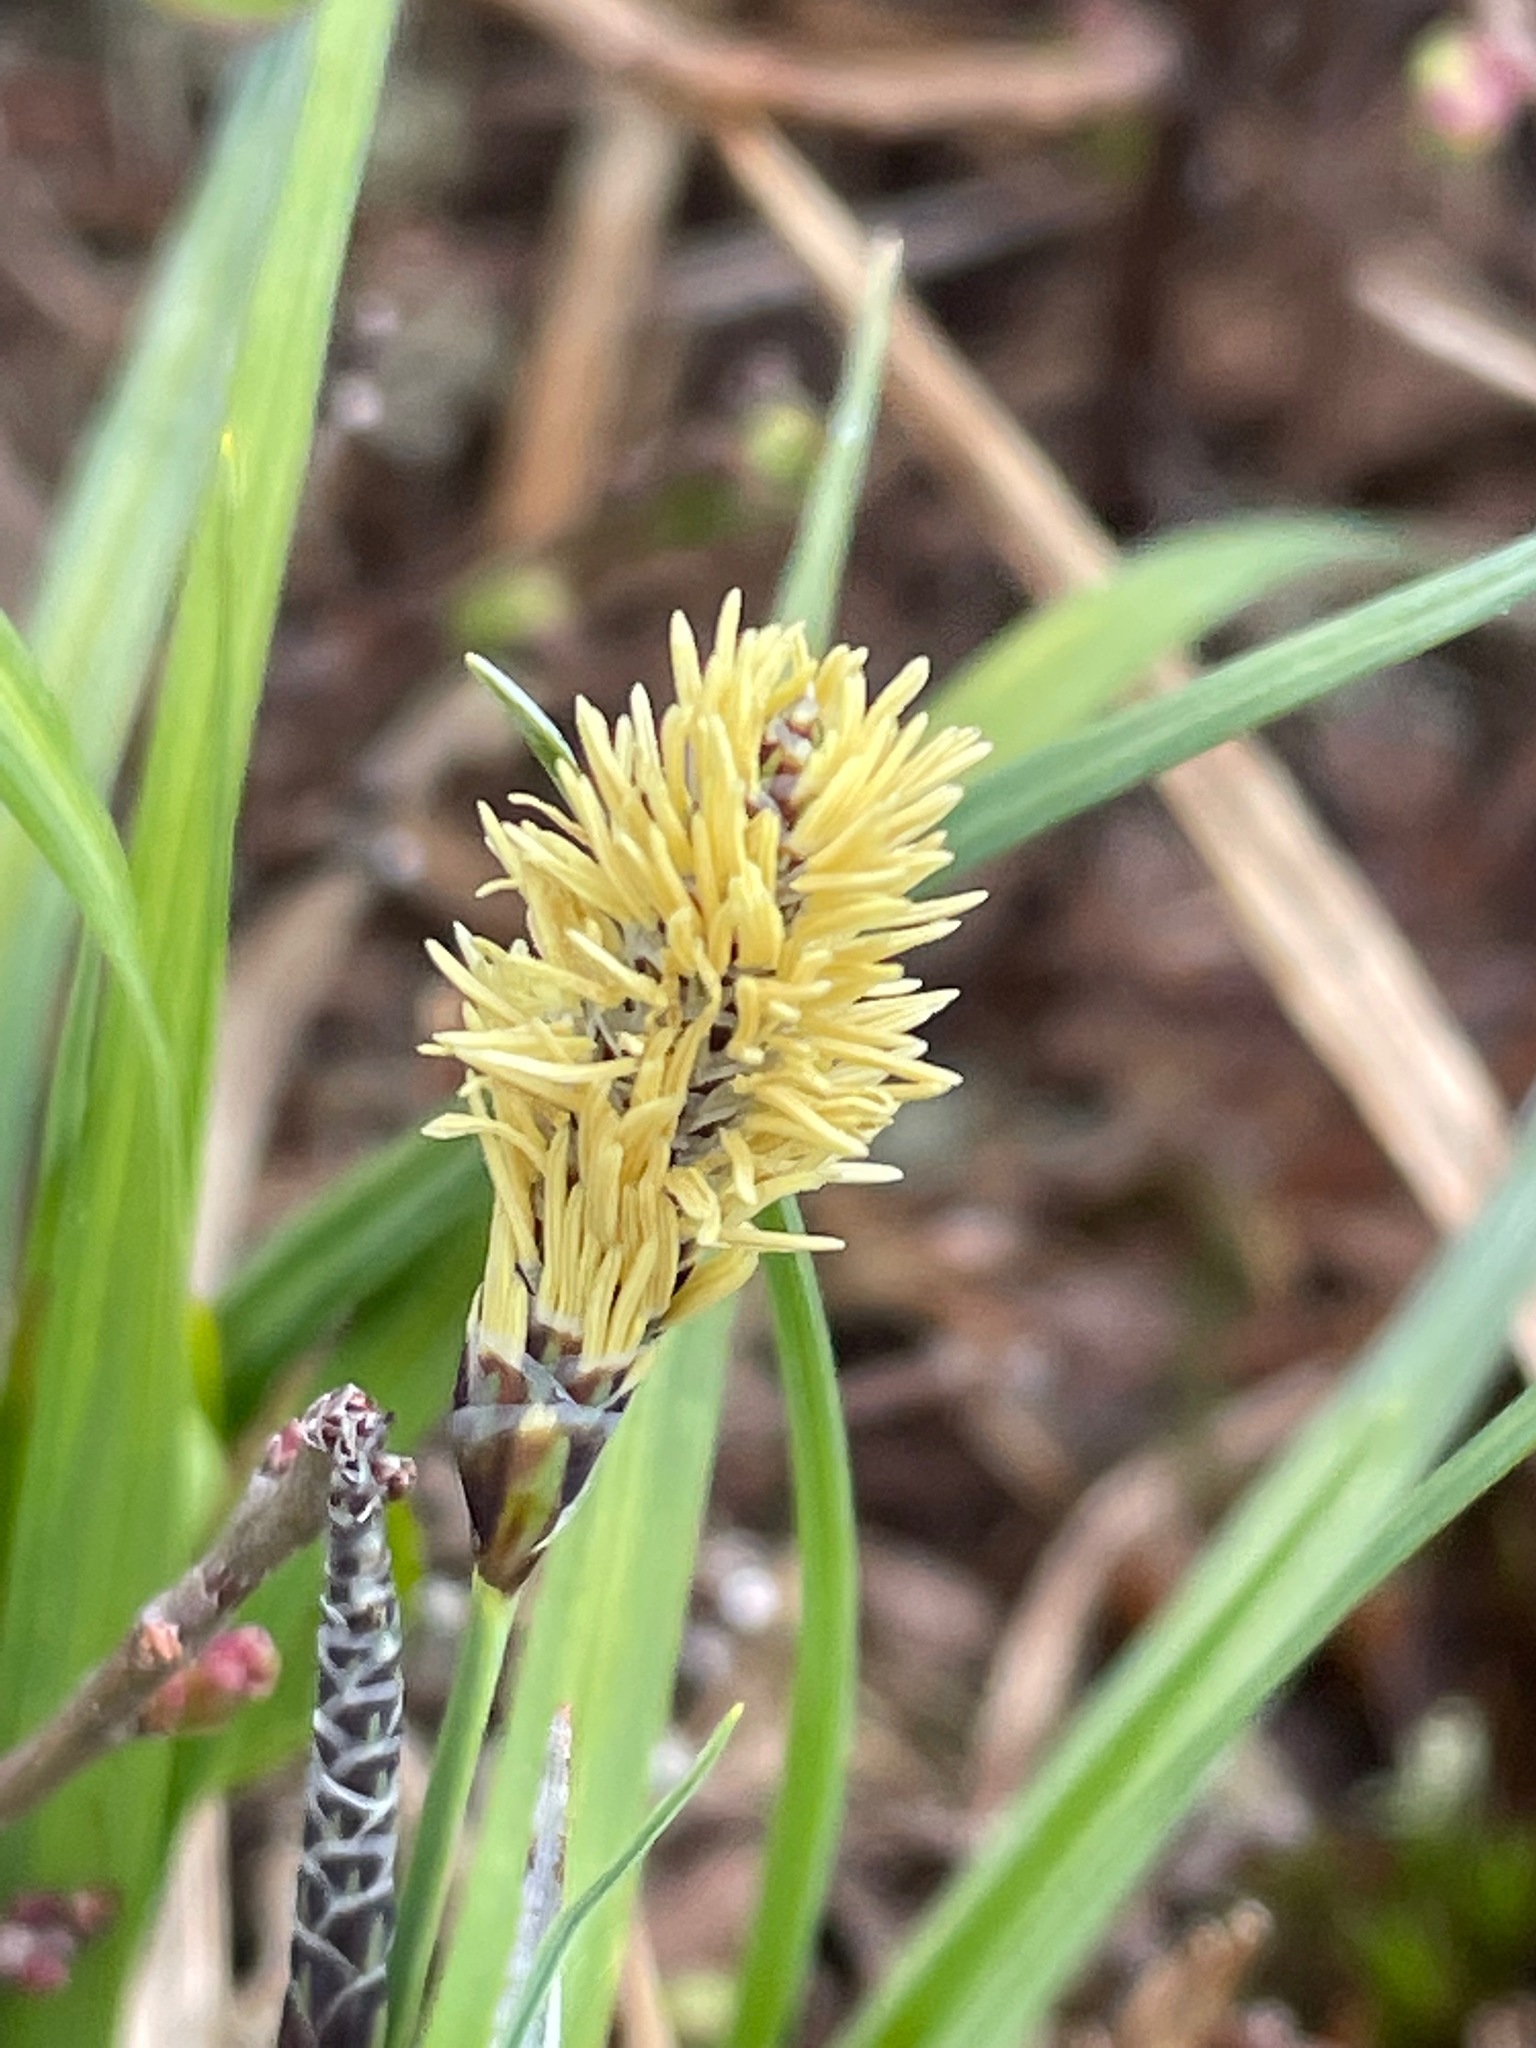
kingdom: Plantae
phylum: Tracheophyta
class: Liliopsida
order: Poales
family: Cyperaceae
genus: Carex
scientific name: Carex bigelowii
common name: Stiff sedge
